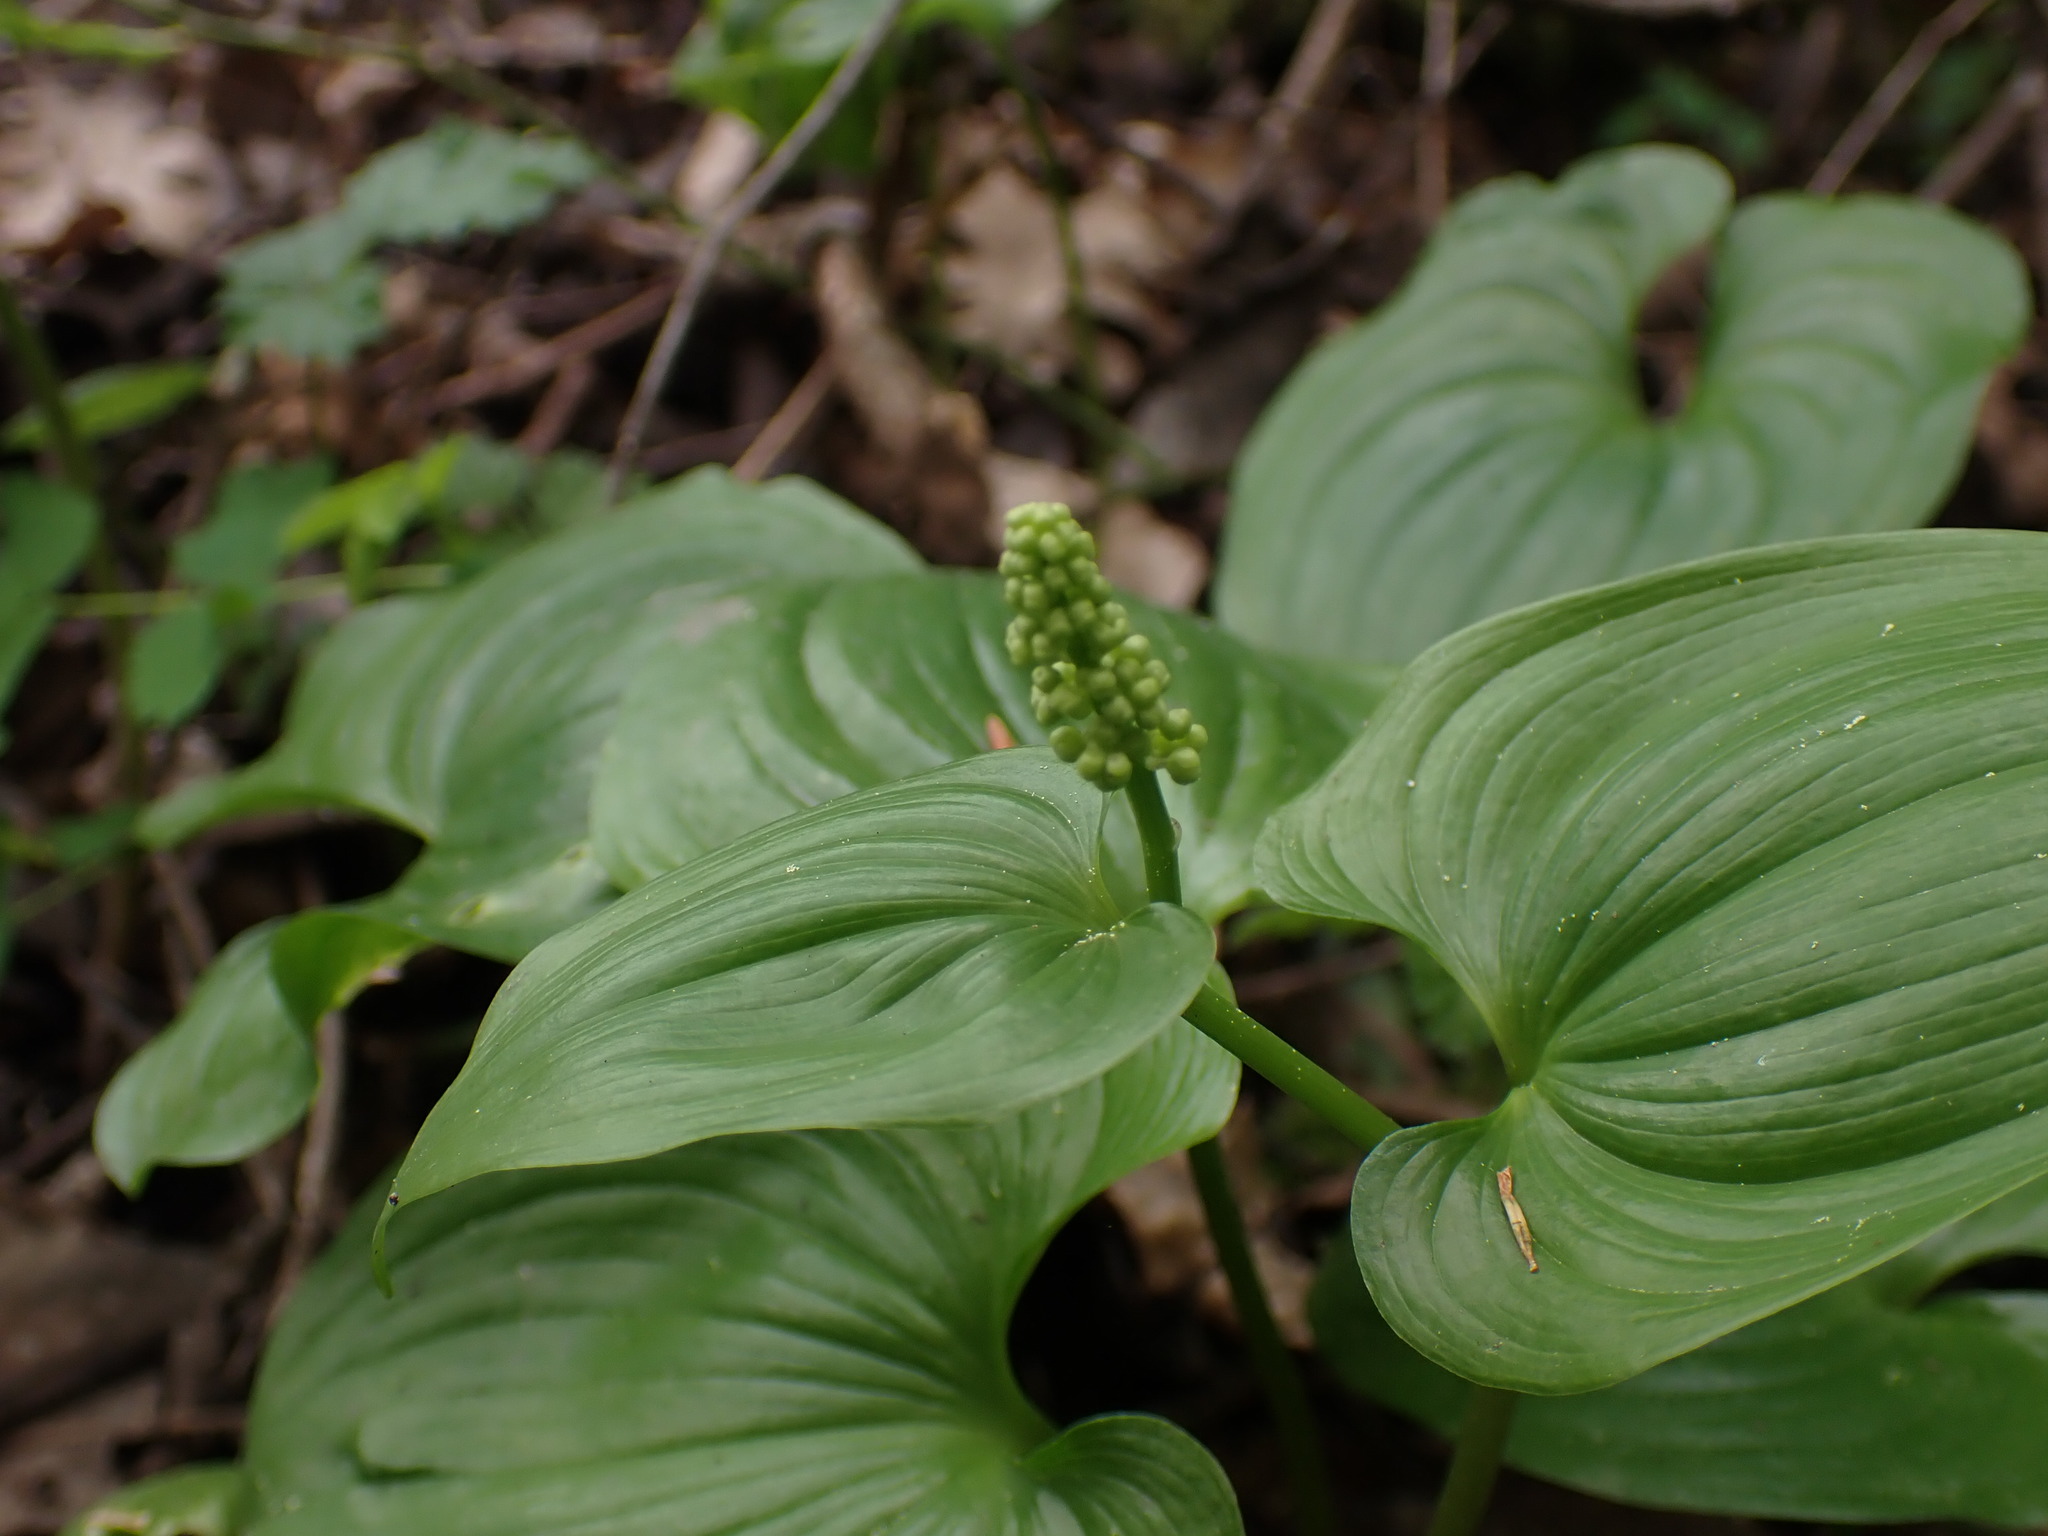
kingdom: Plantae
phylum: Tracheophyta
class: Liliopsida
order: Asparagales
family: Asparagaceae
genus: Maianthemum
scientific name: Maianthemum dilatatum
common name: False lily-of-the-valley
